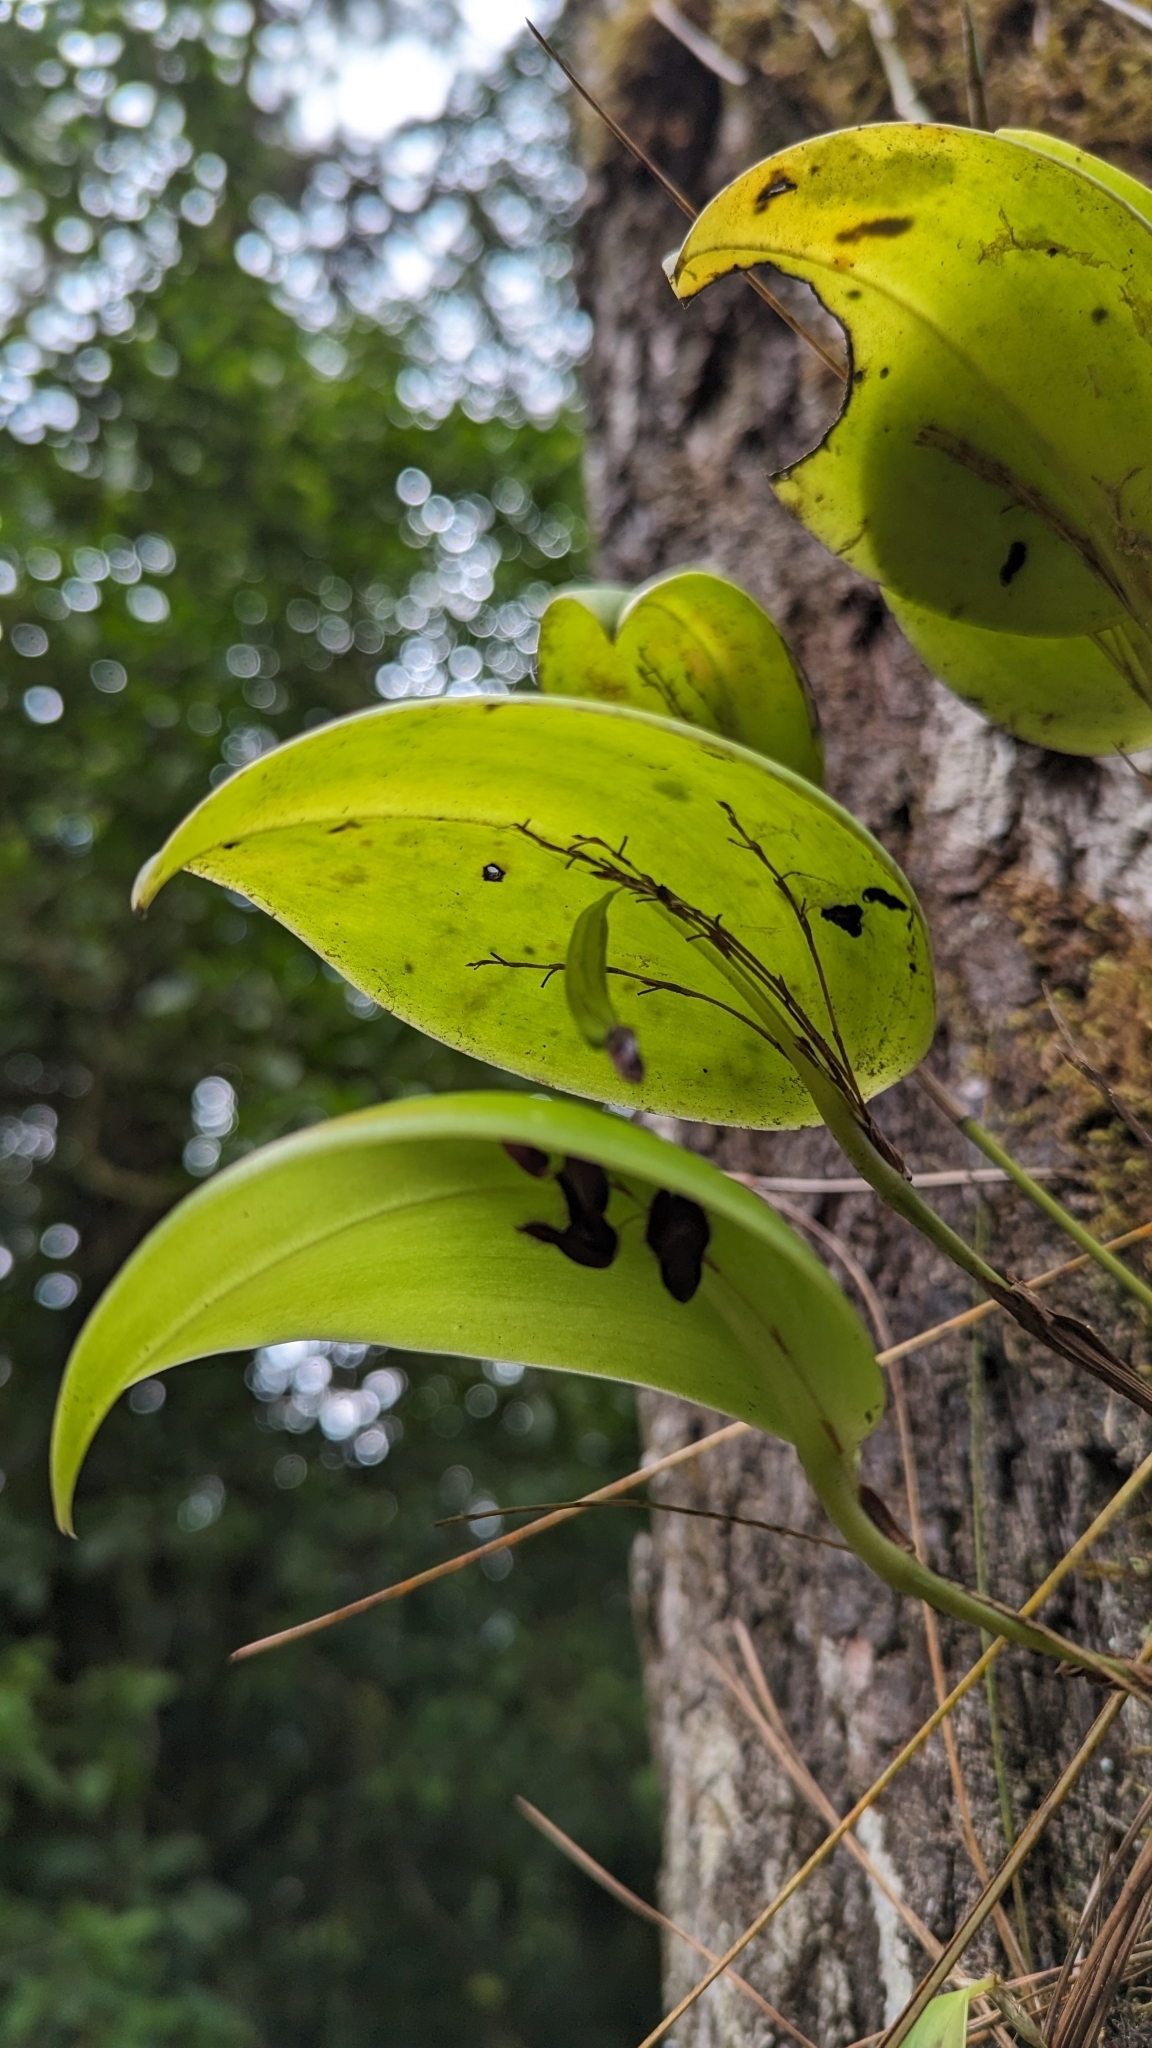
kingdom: Plantae
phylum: Tracheophyta
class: Liliopsida
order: Asparagales
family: Orchidaceae
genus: Stelis
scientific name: Stelis imraei
